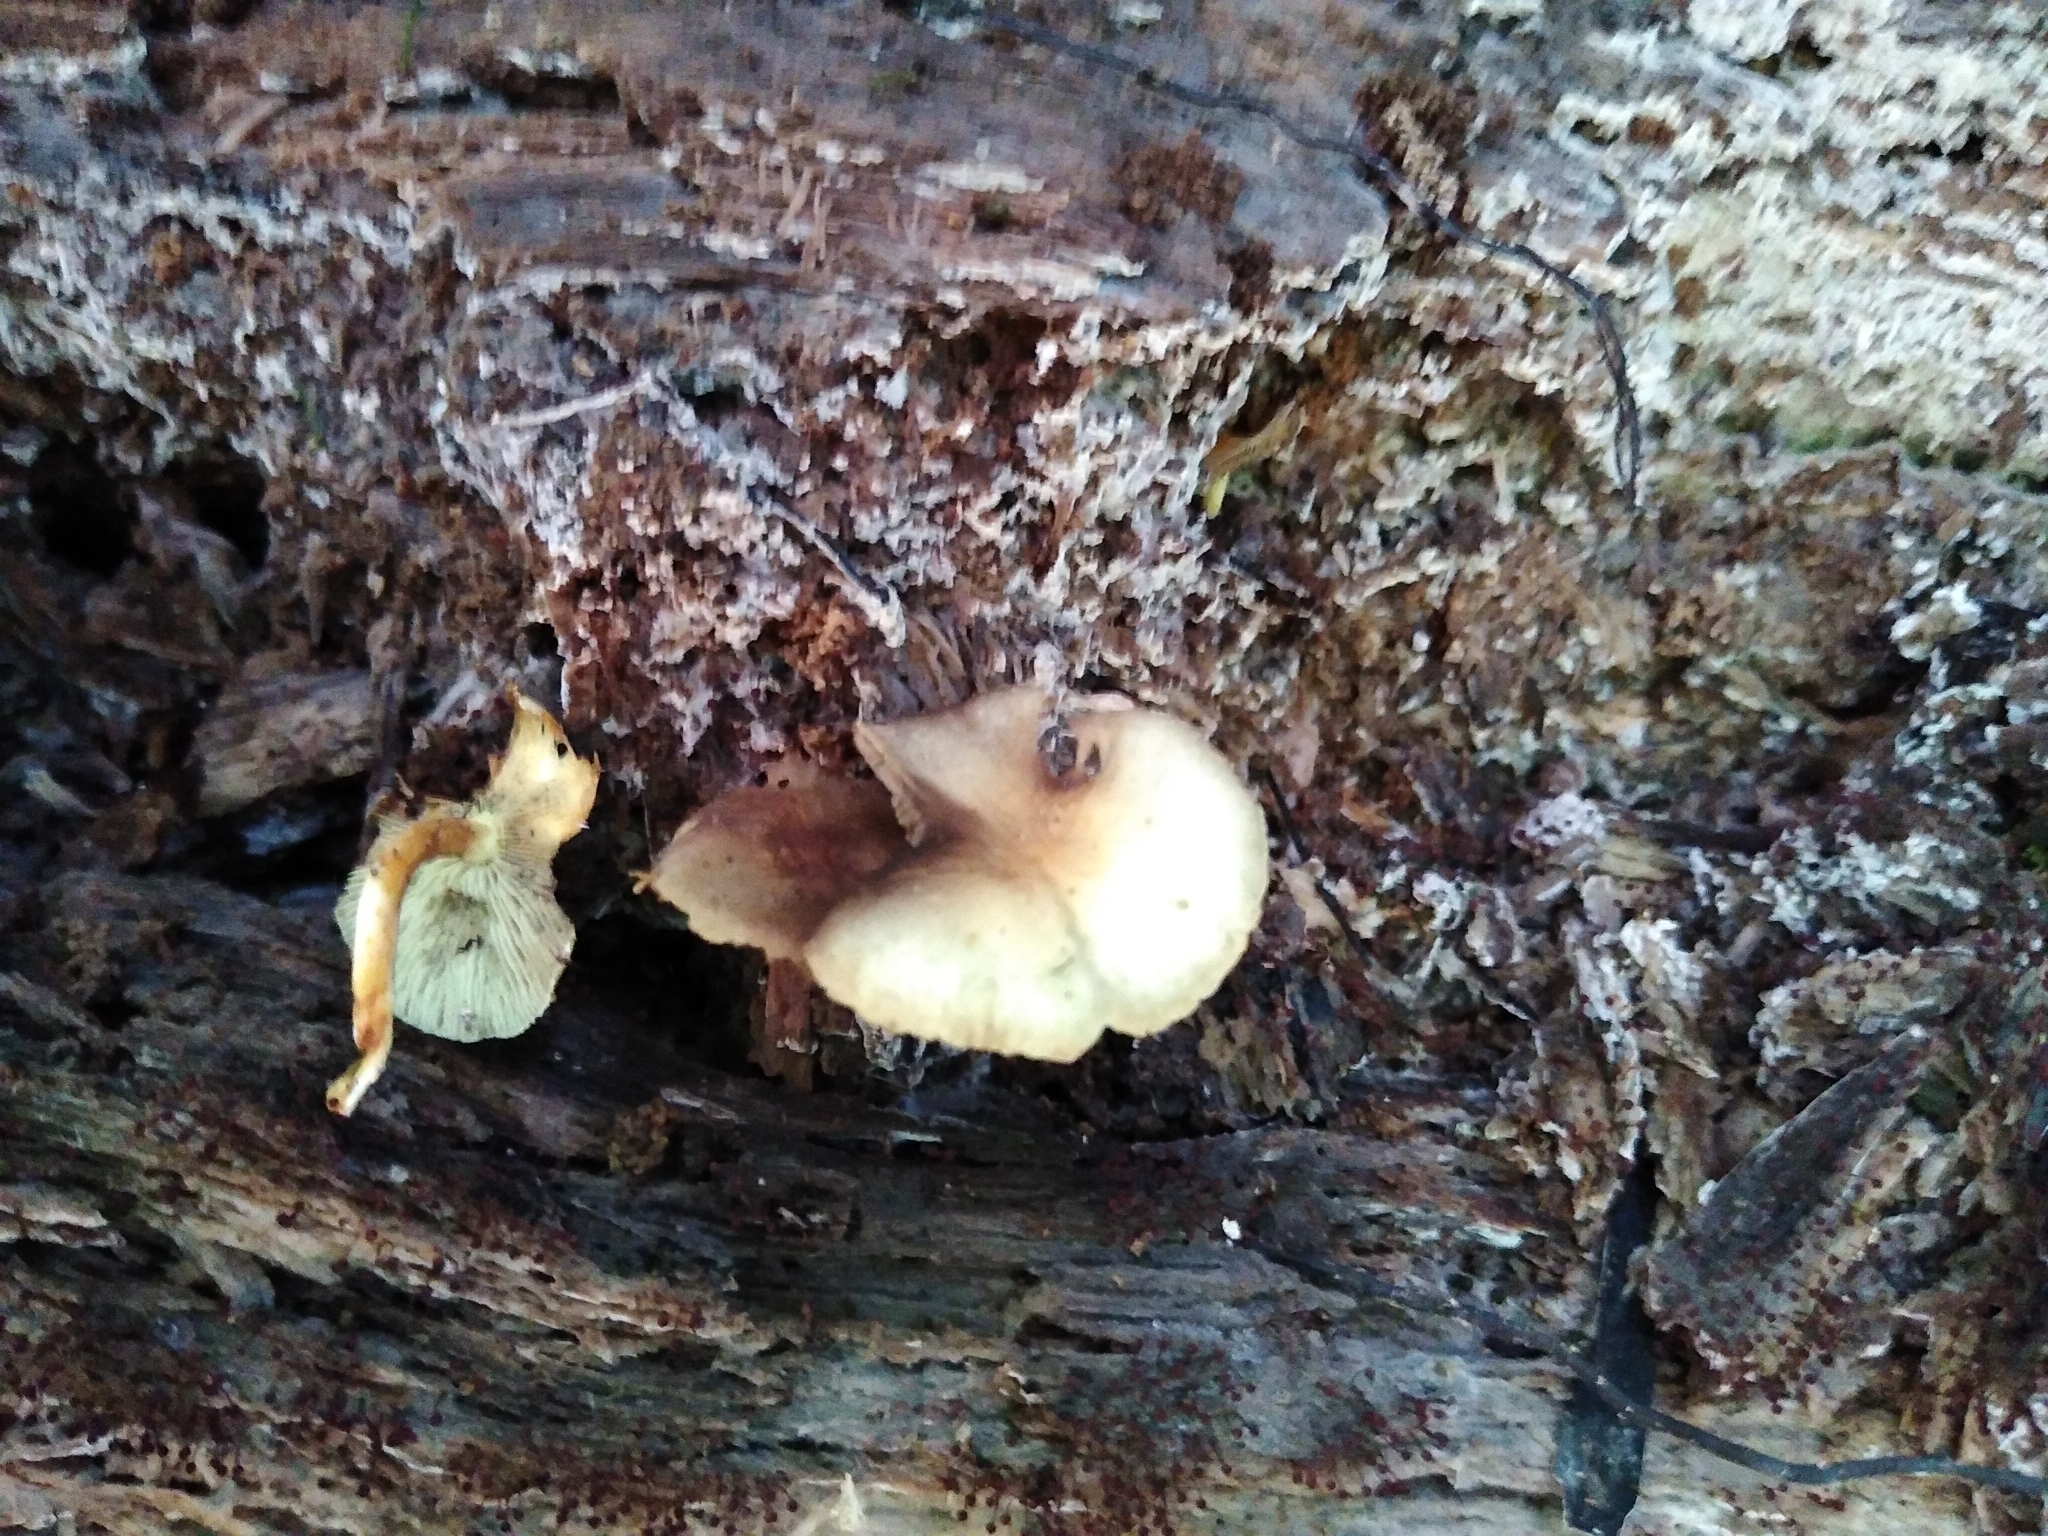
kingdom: Fungi
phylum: Basidiomycota
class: Agaricomycetes
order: Agaricales
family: Strophariaceae
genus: Hypholoma
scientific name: Hypholoma fasciculare
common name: Sulphur tuft
